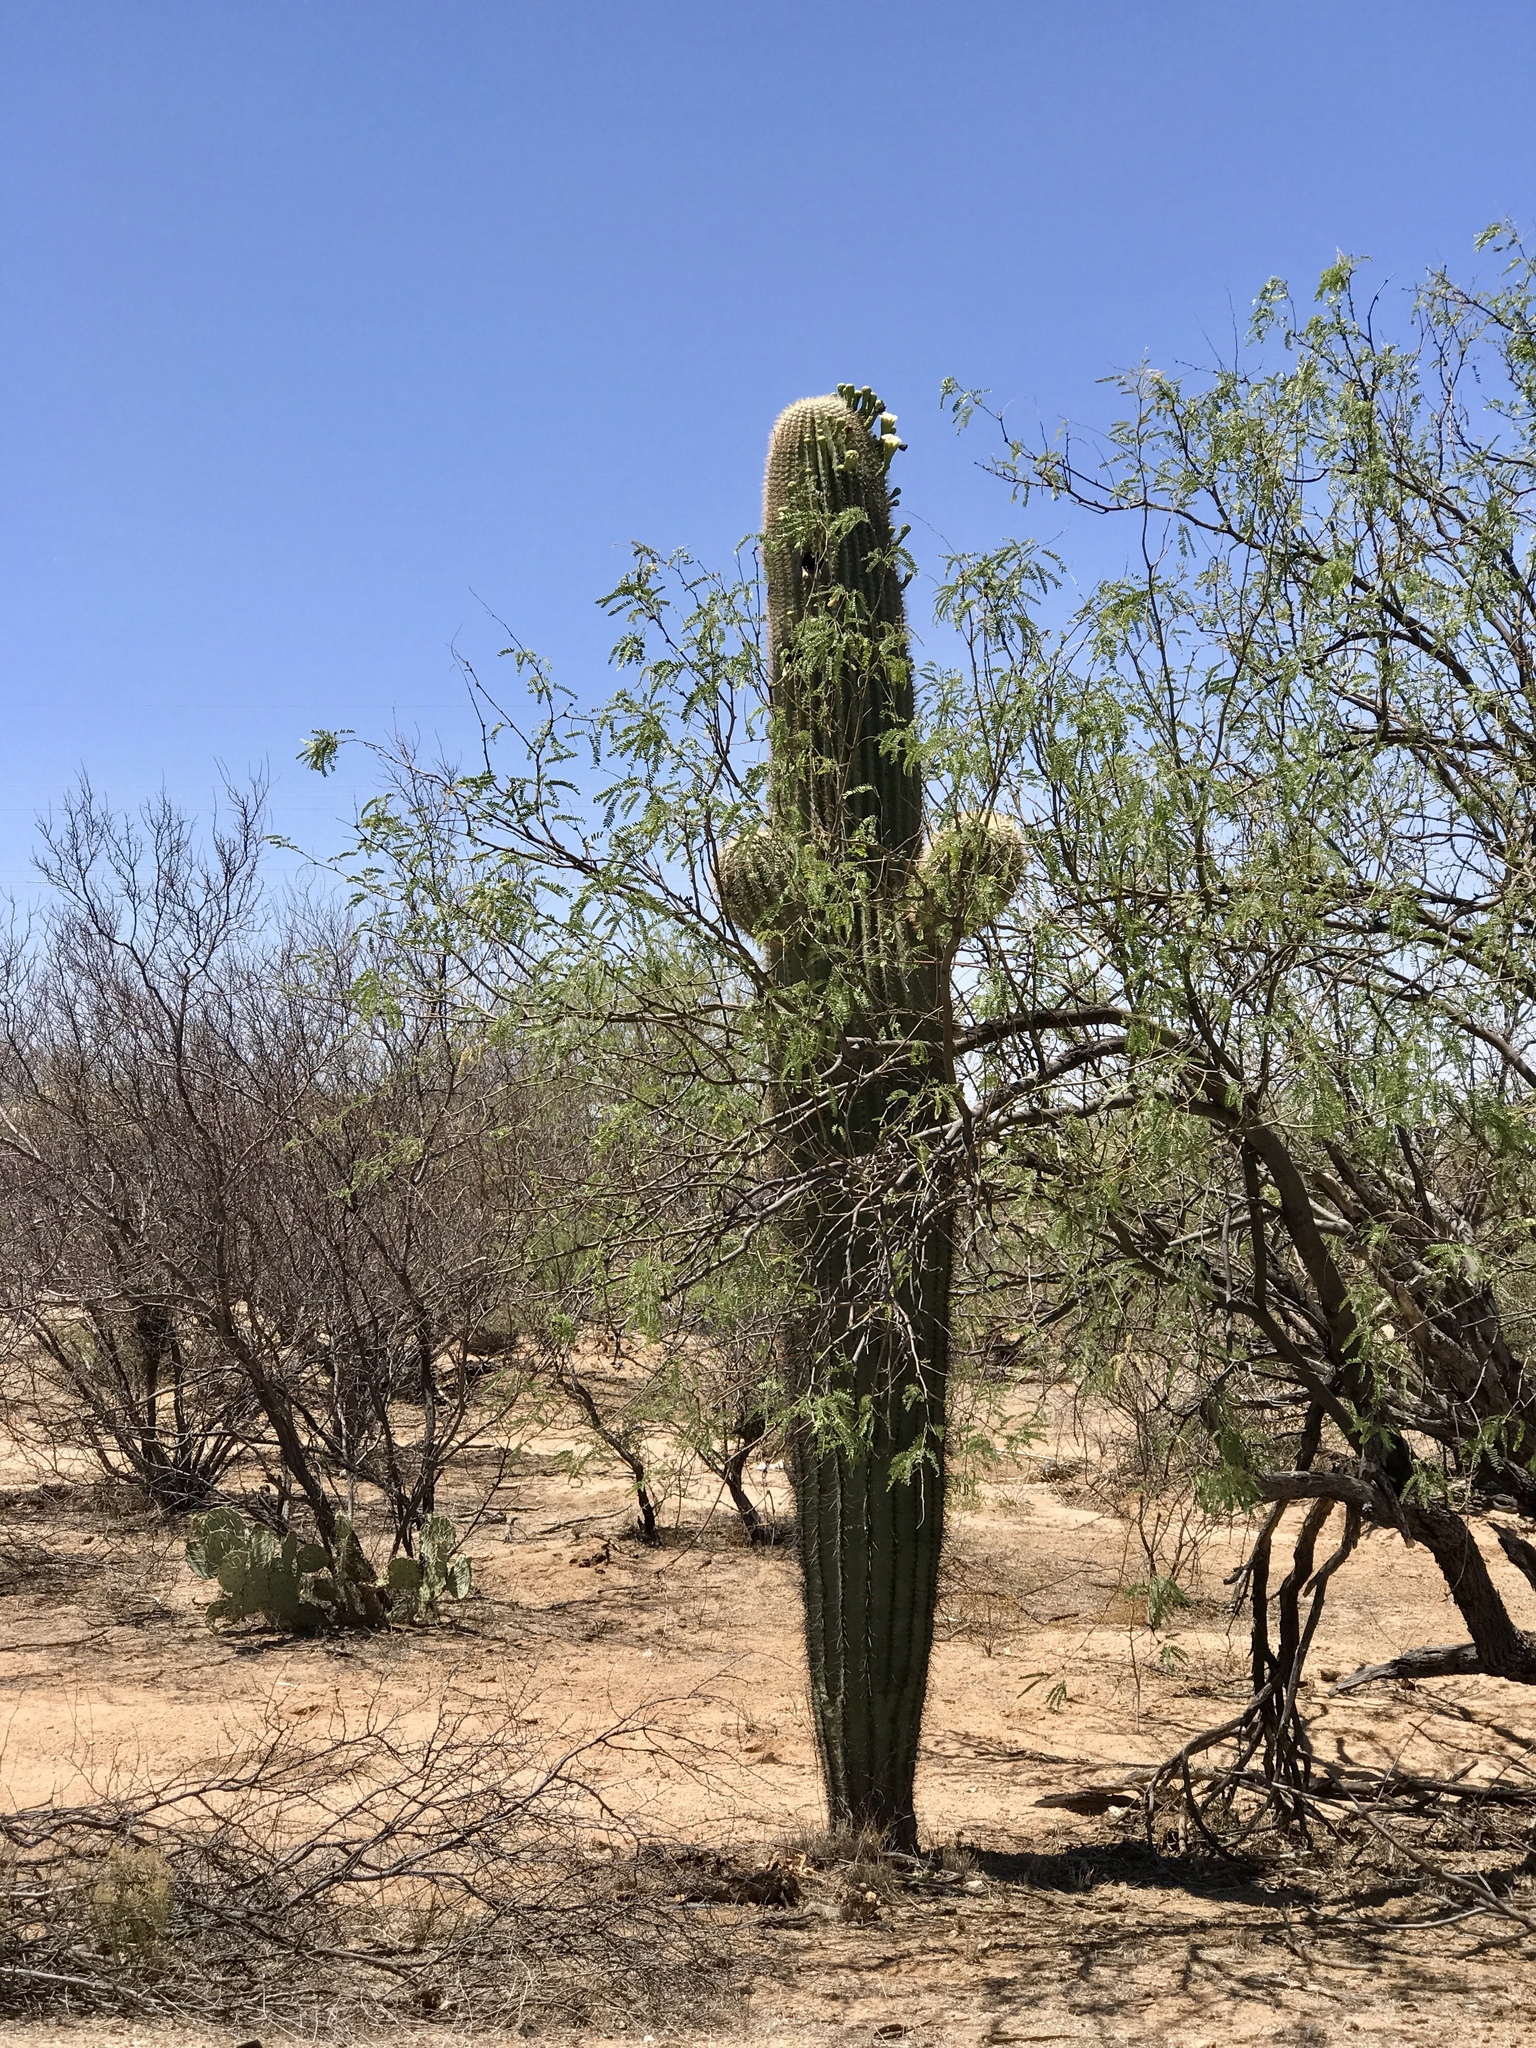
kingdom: Plantae
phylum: Tracheophyta
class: Magnoliopsida
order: Caryophyllales
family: Cactaceae
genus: Carnegiea
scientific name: Carnegiea gigantea
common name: Saguaro
